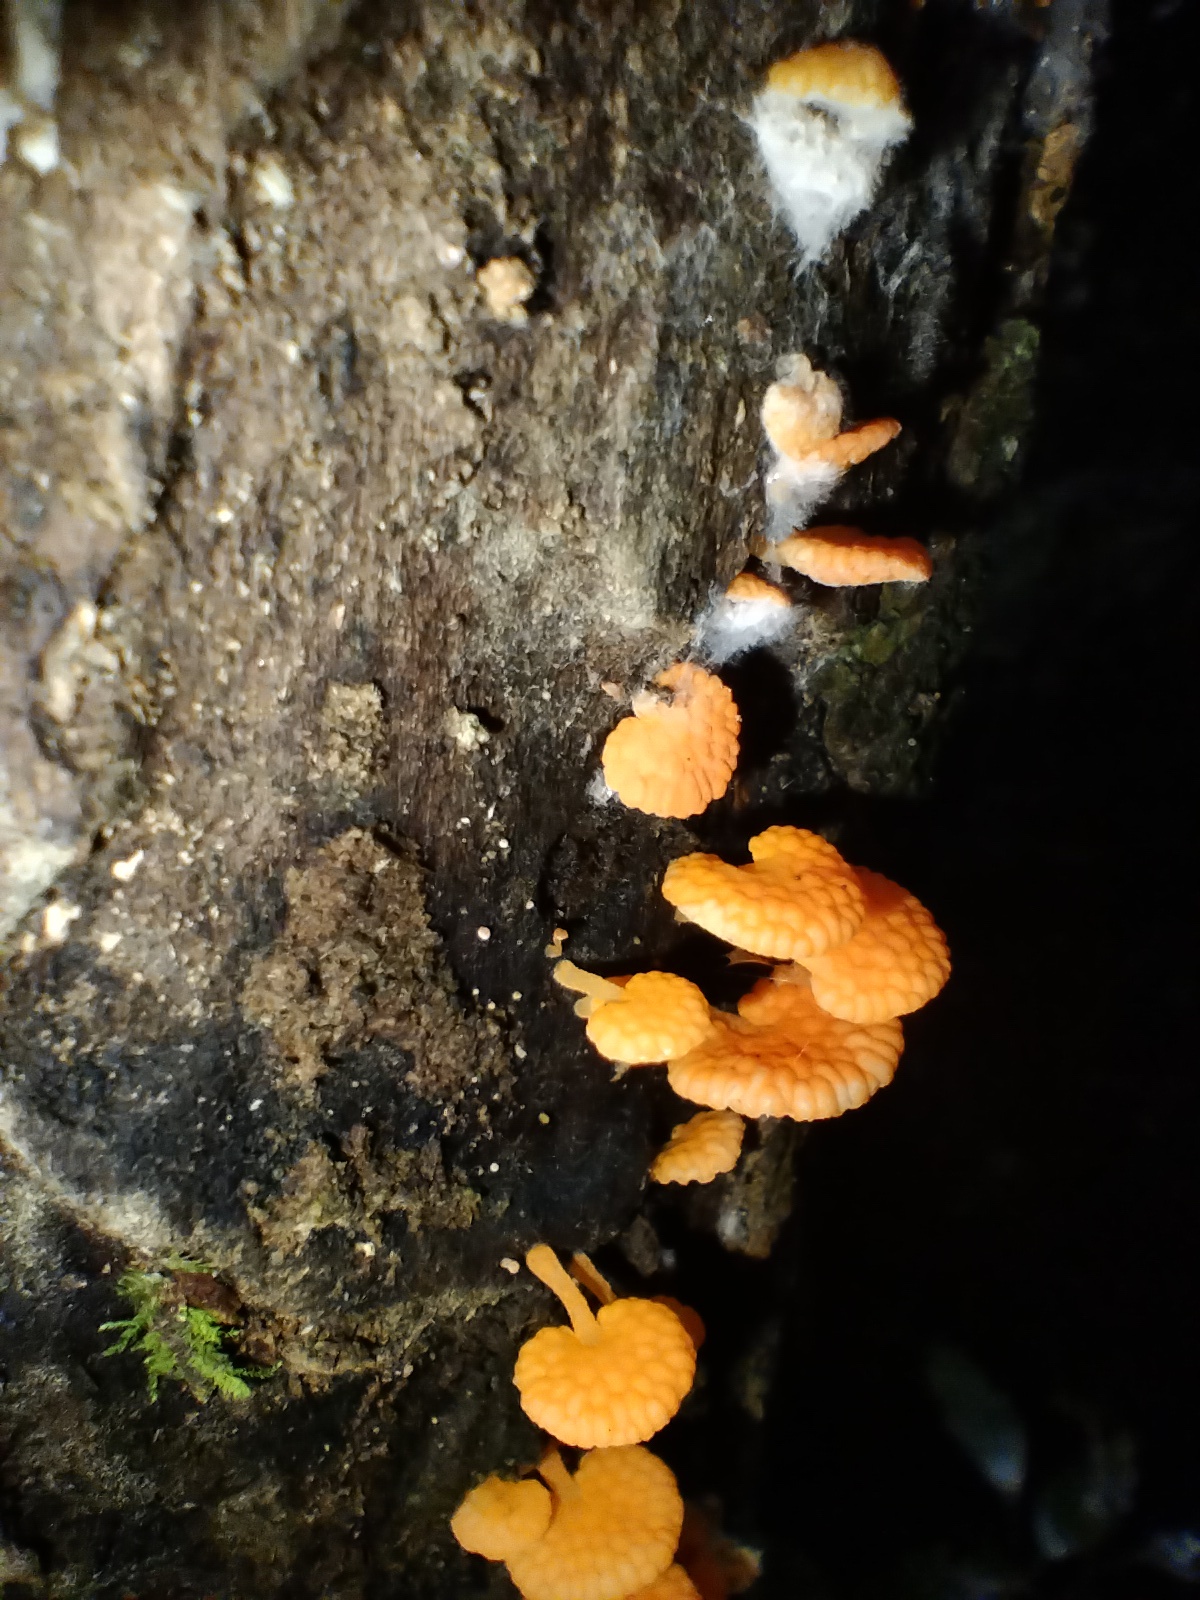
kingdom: Fungi
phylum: Basidiomycota
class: Agaricomycetes
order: Agaricales
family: Mycenaceae
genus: Favolaschia
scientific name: Favolaschia claudopus
